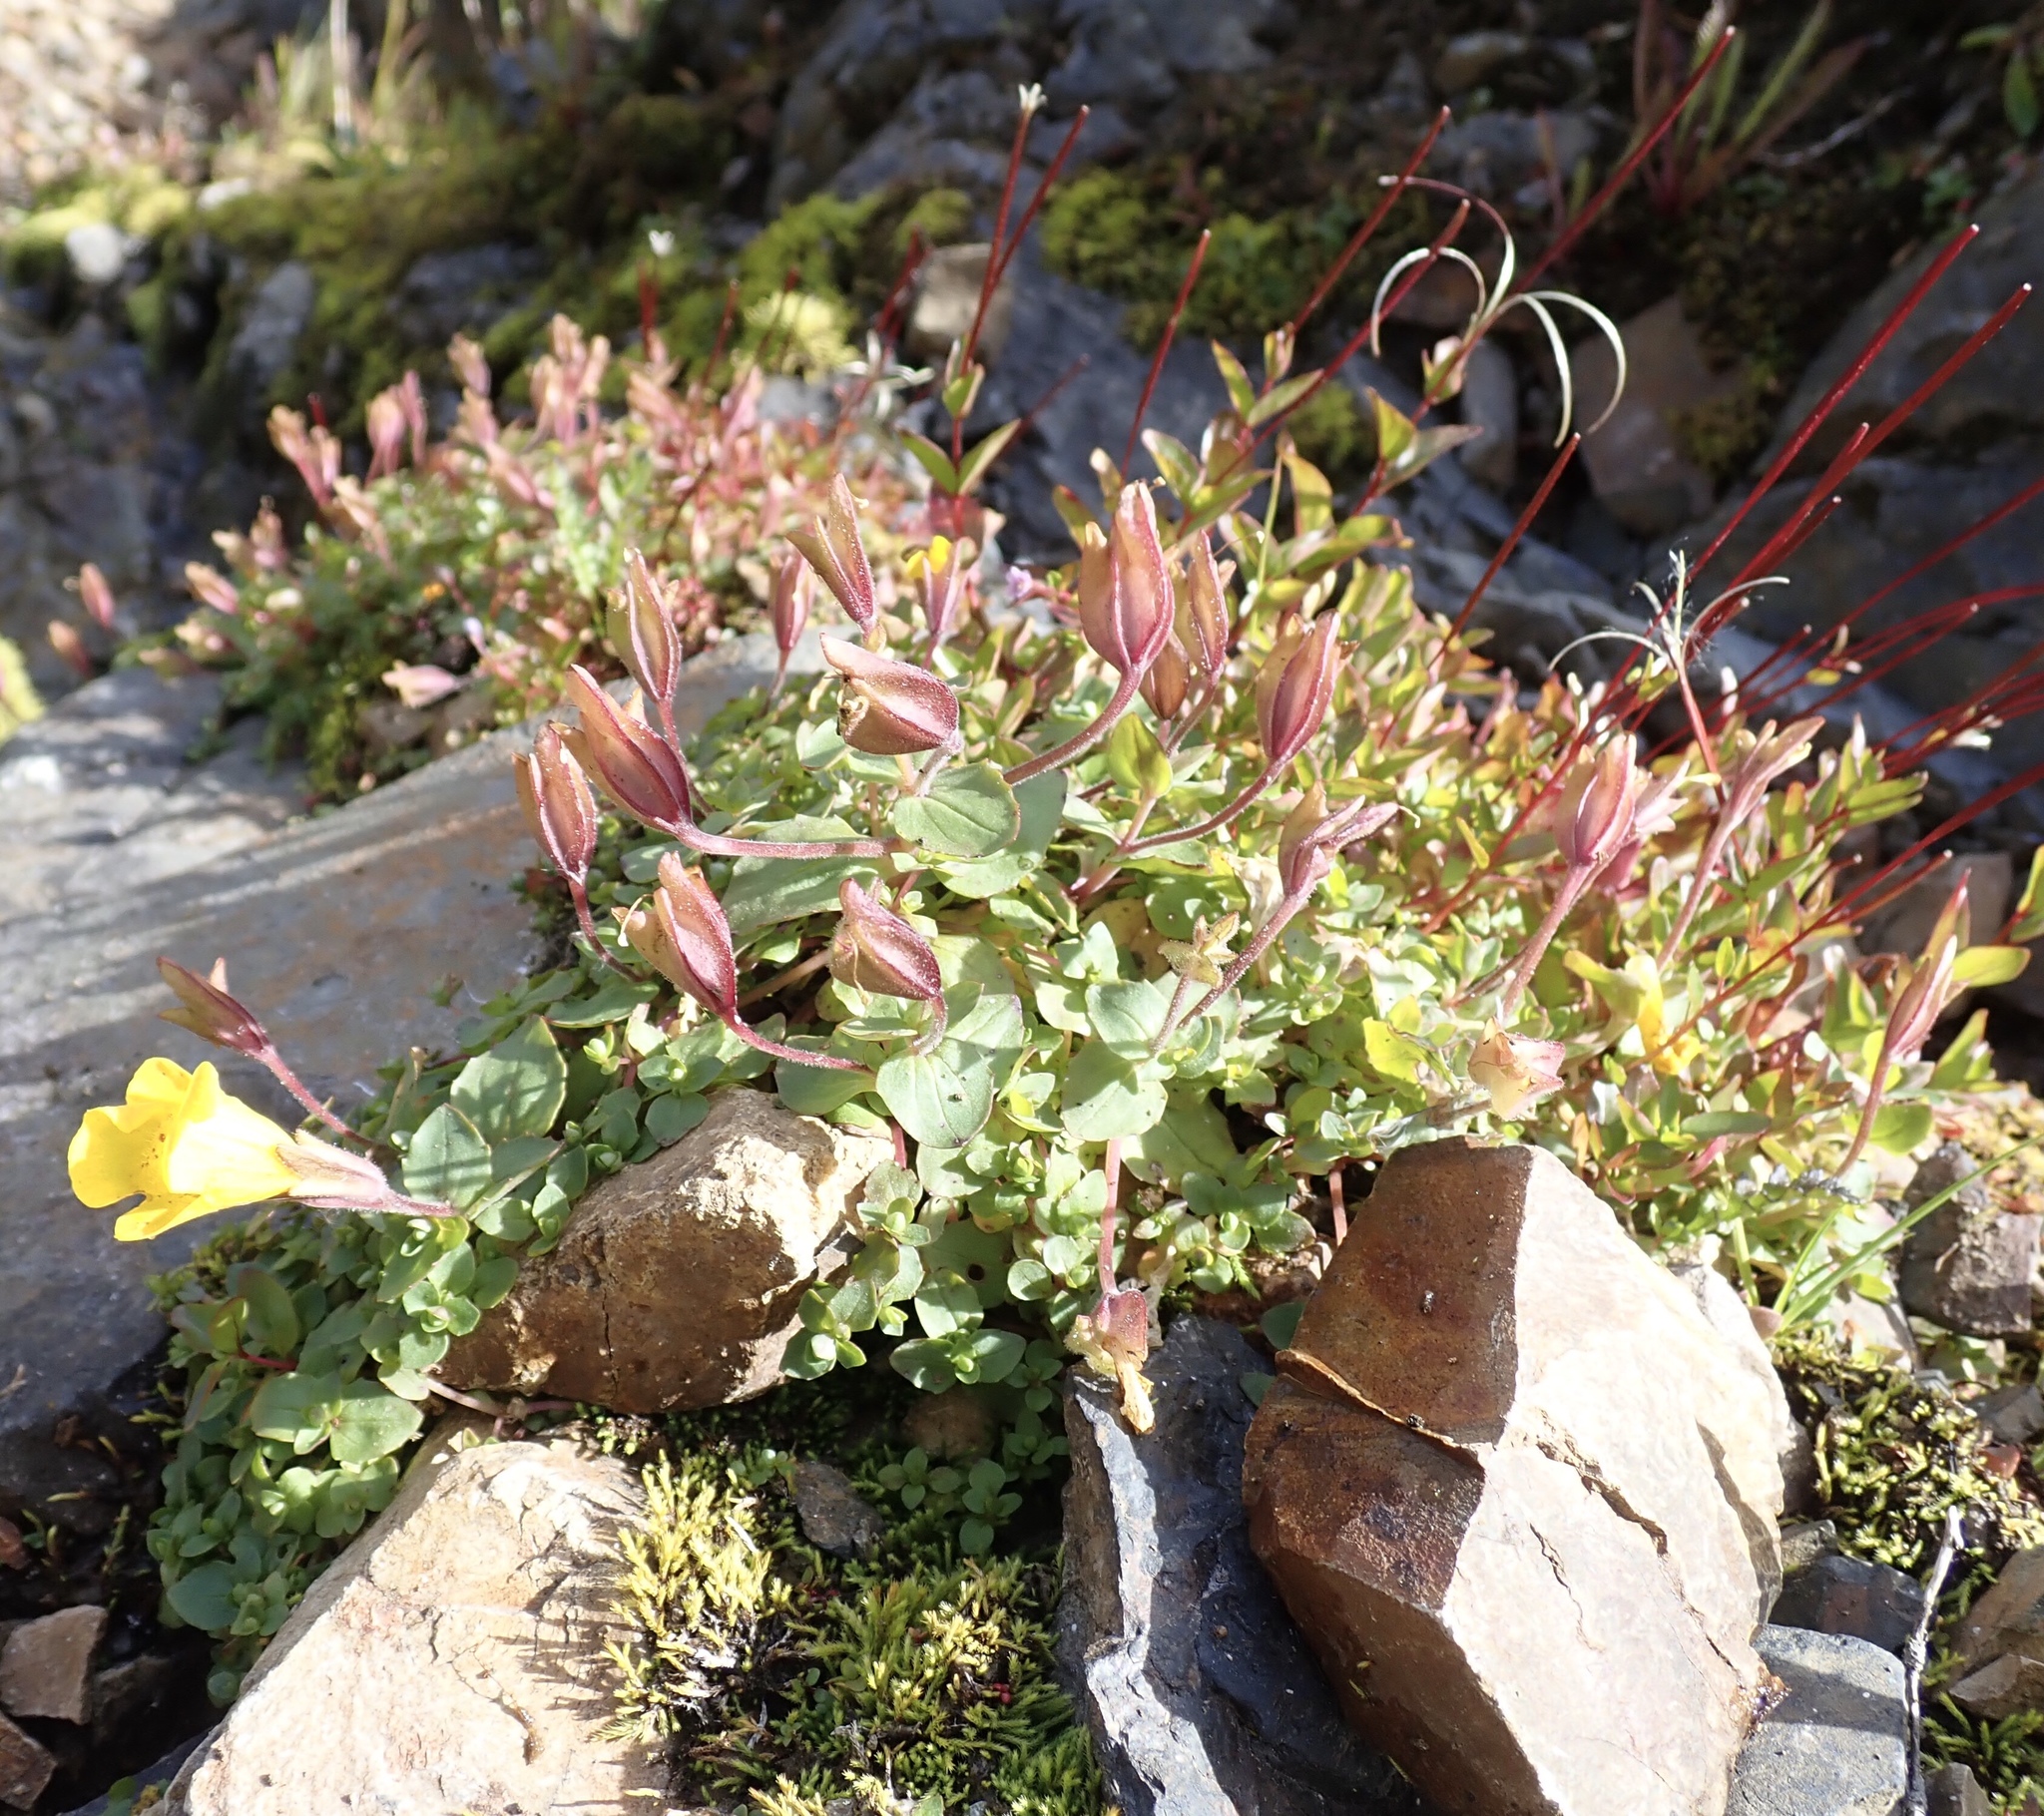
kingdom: Plantae
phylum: Tracheophyta
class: Magnoliopsida
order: Lamiales
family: Phrymaceae
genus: Erythranthe
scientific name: Erythranthe caespitosa
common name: Subalpine monkeyflower
